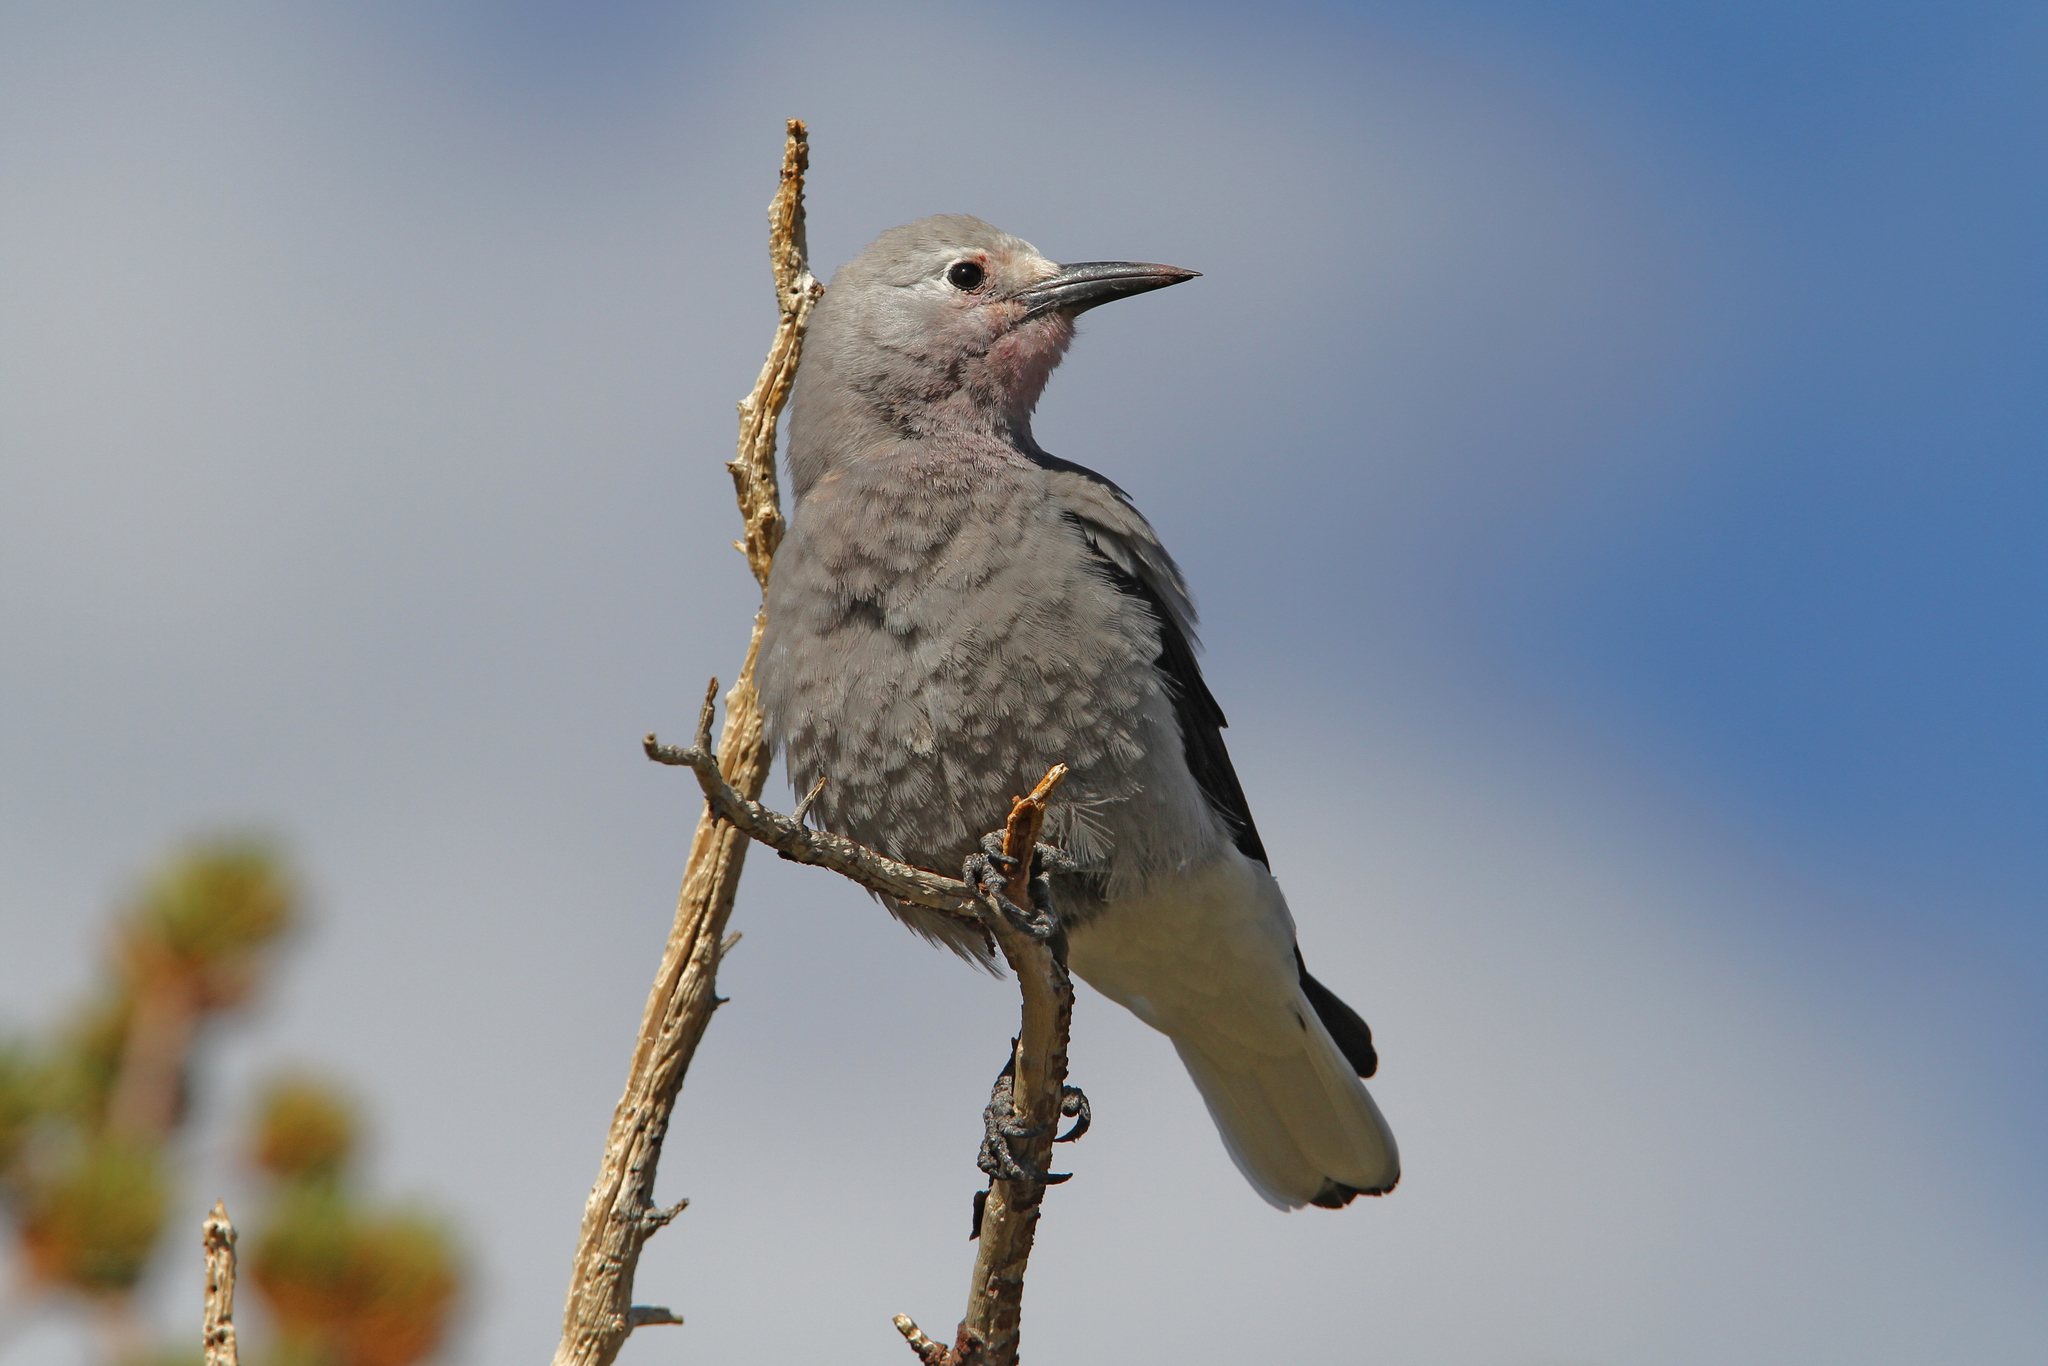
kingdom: Animalia
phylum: Chordata
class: Aves
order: Passeriformes
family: Corvidae
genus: Nucifraga
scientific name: Nucifraga columbiana
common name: Clark's nutcracker
